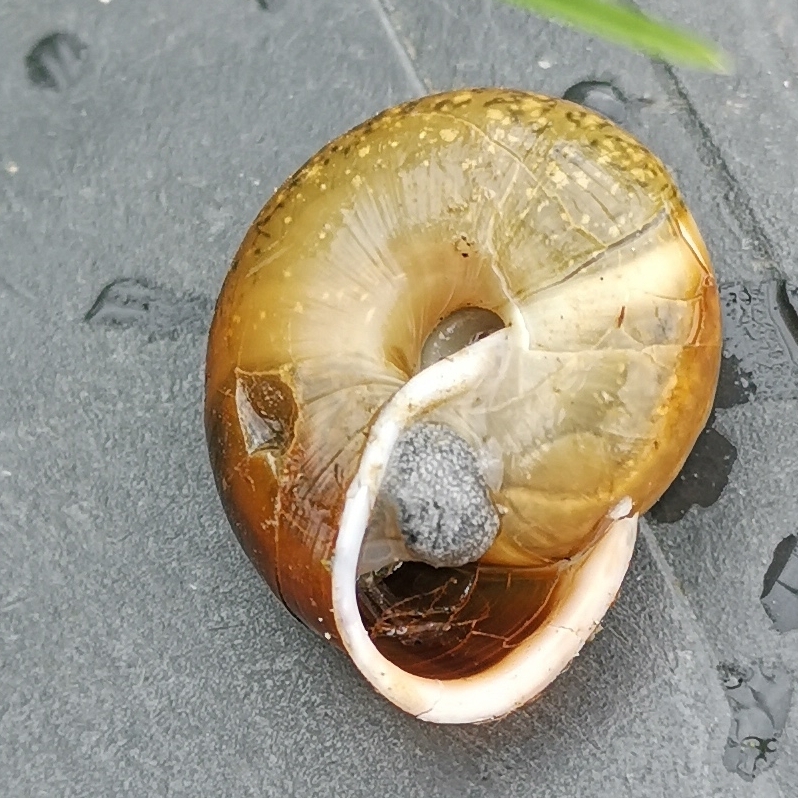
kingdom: Animalia
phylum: Mollusca
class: Gastropoda
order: Stylommatophora
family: Helicidae
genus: Campylaea
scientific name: Campylaea illyrica
